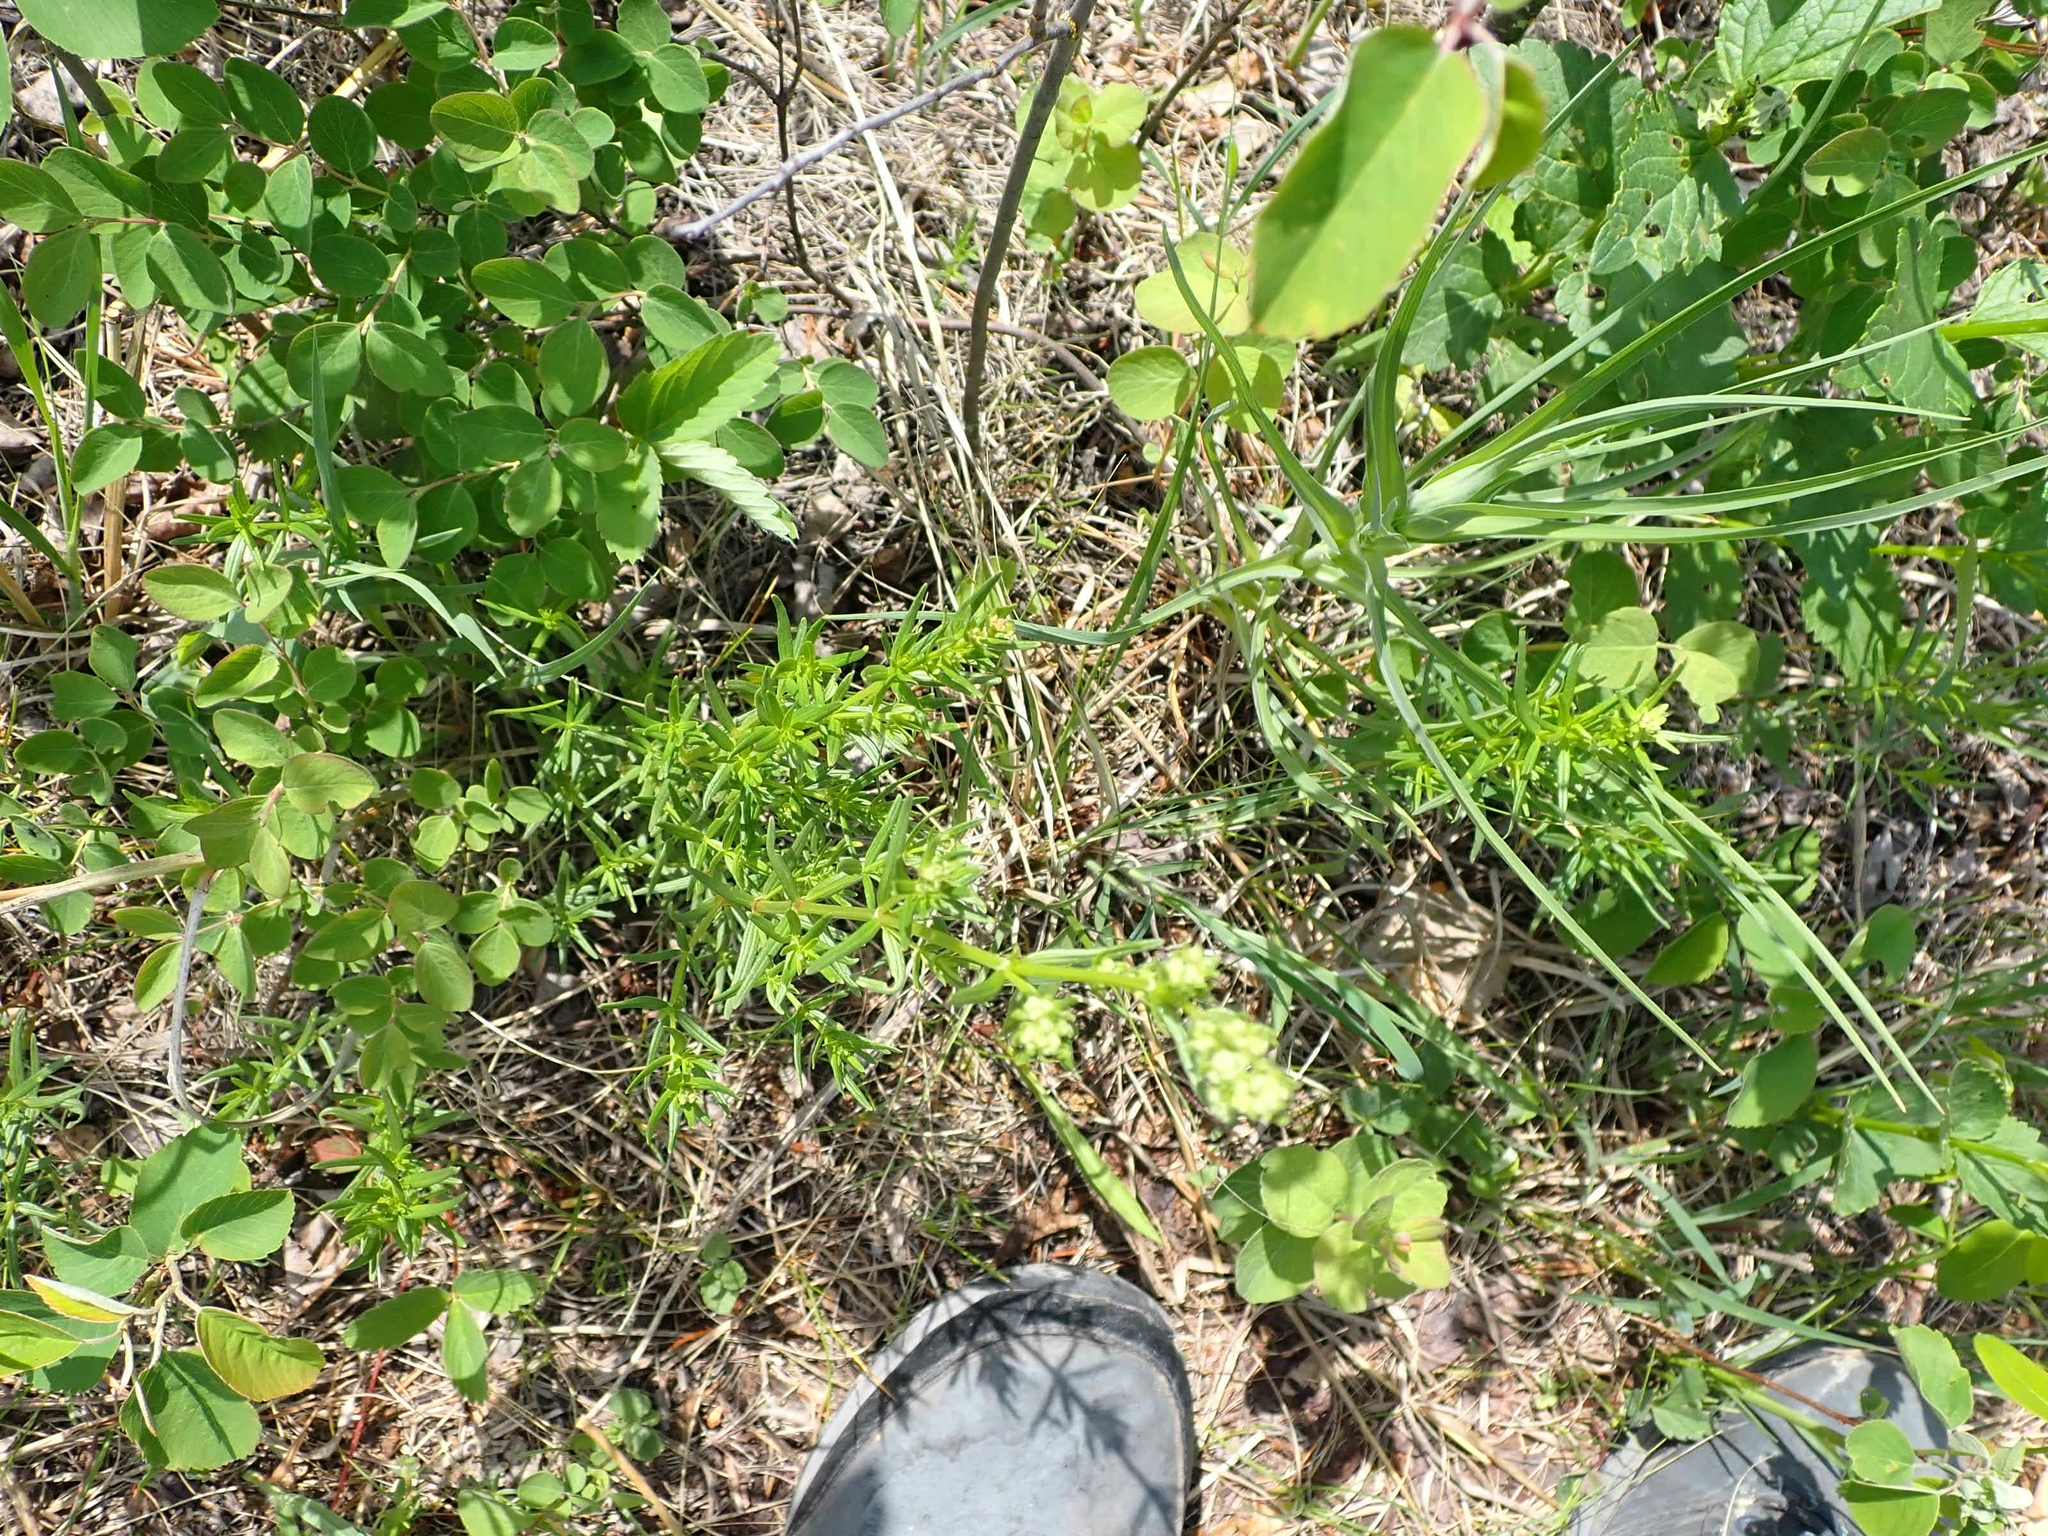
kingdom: Plantae
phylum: Tracheophyta
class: Magnoliopsida
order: Gentianales
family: Rubiaceae
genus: Galium
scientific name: Galium boreale
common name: Northern bedstraw
